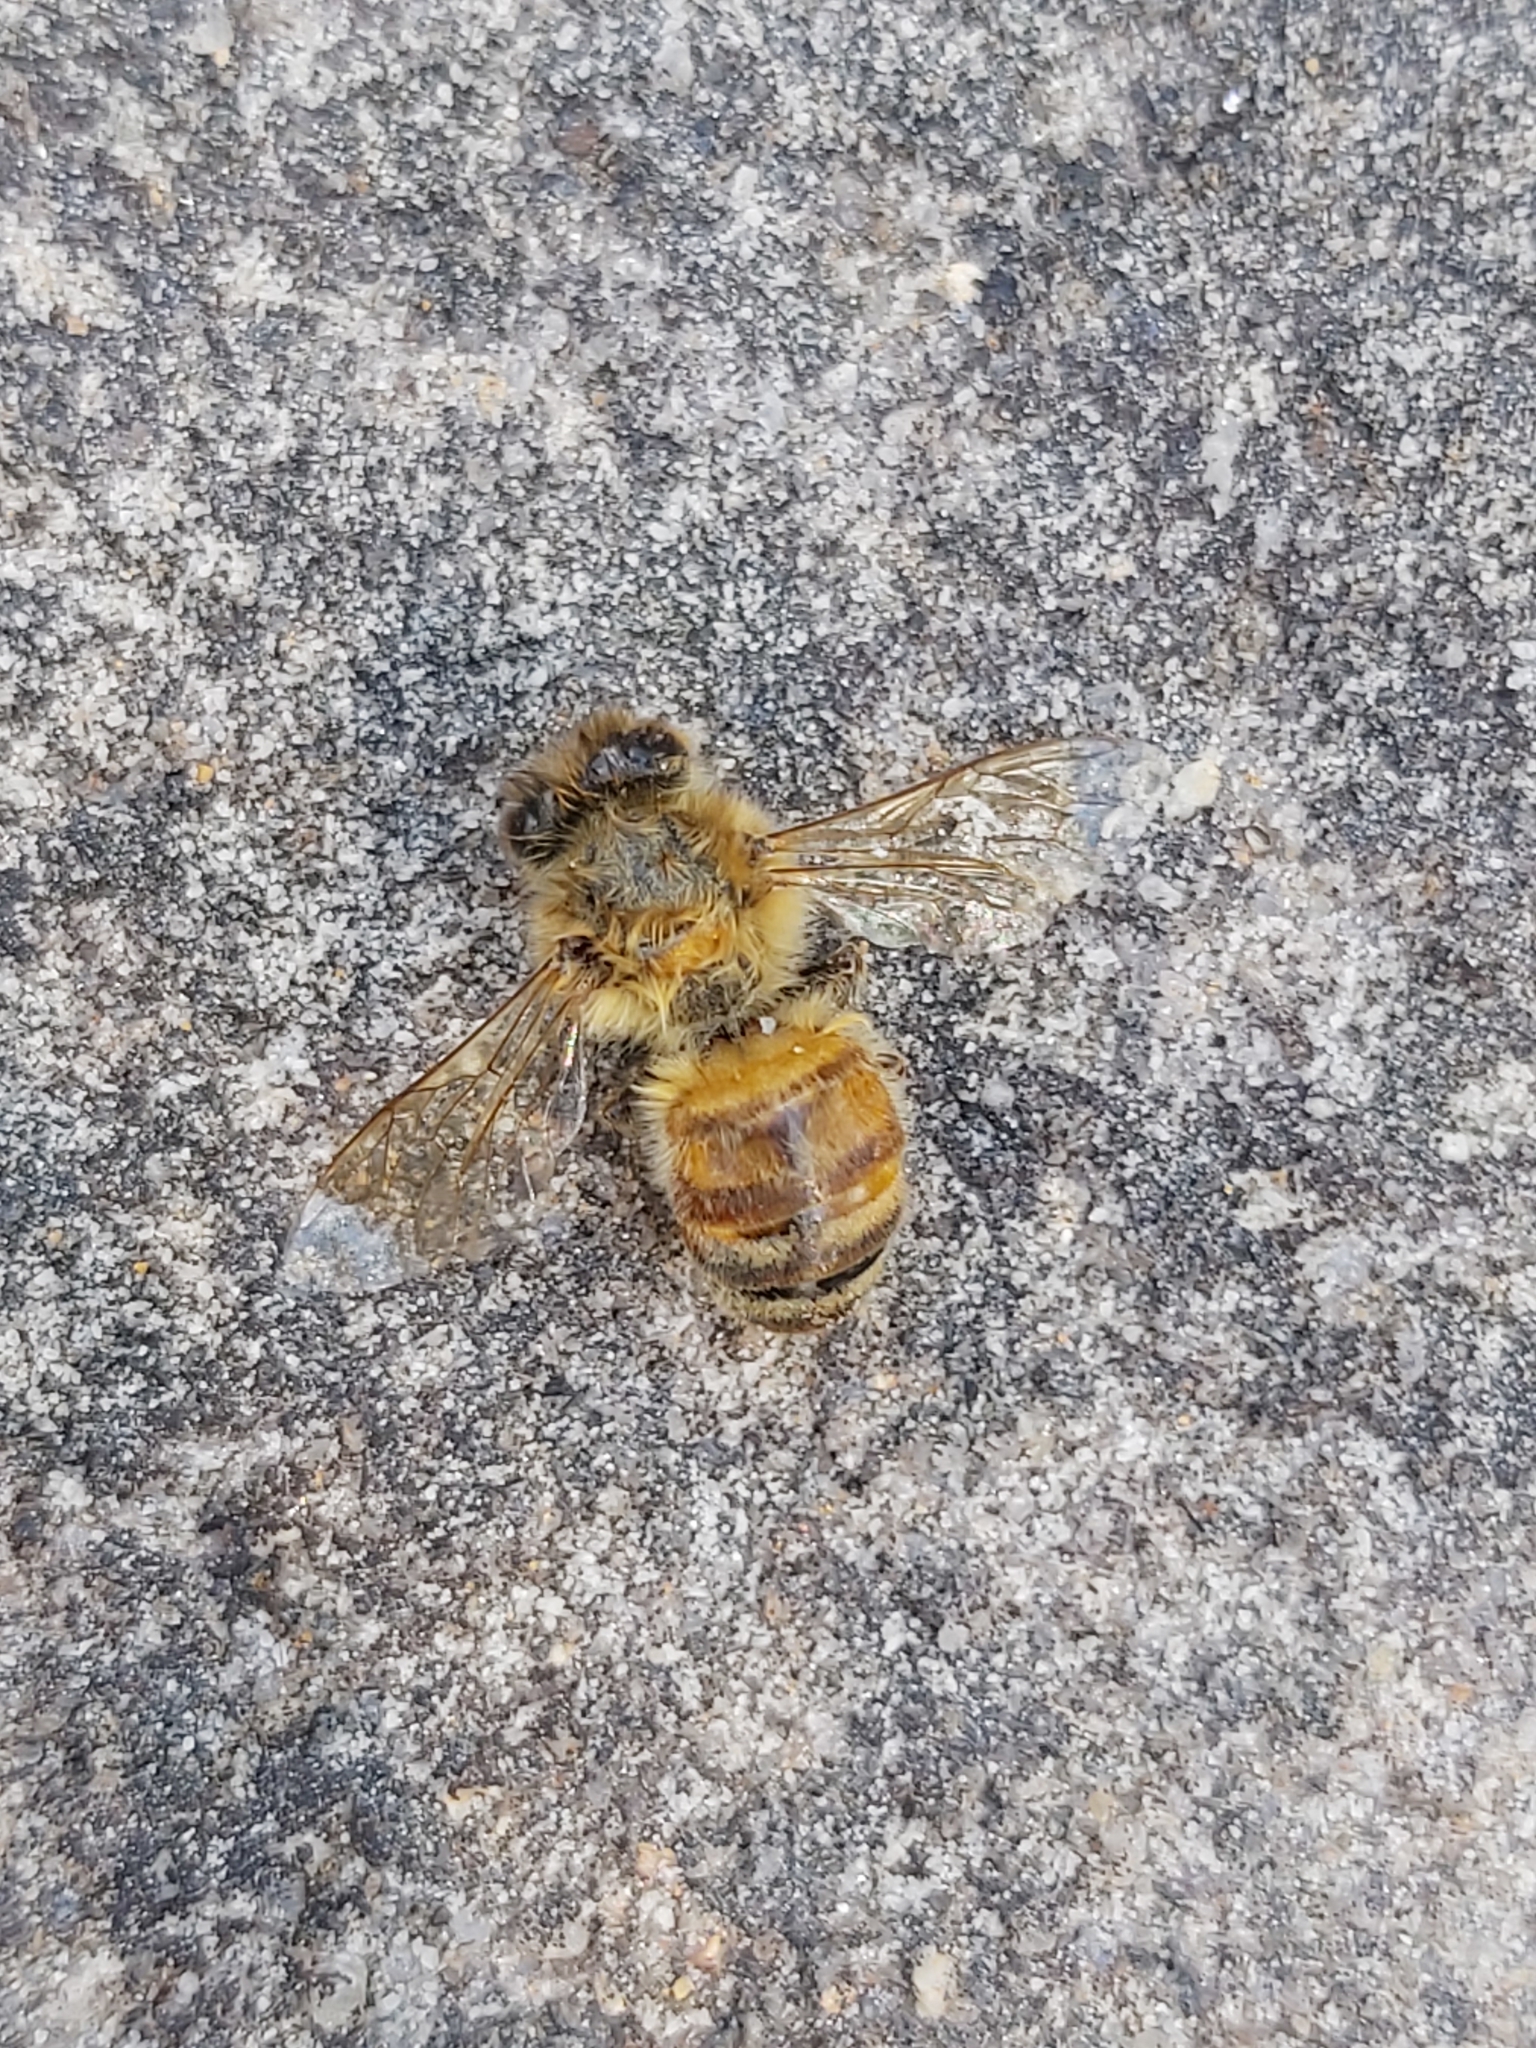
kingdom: Animalia
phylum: Arthropoda
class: Insecta
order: Hymenoptera
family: Apidae
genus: Apis
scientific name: Apis mellifera
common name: Honey bee
